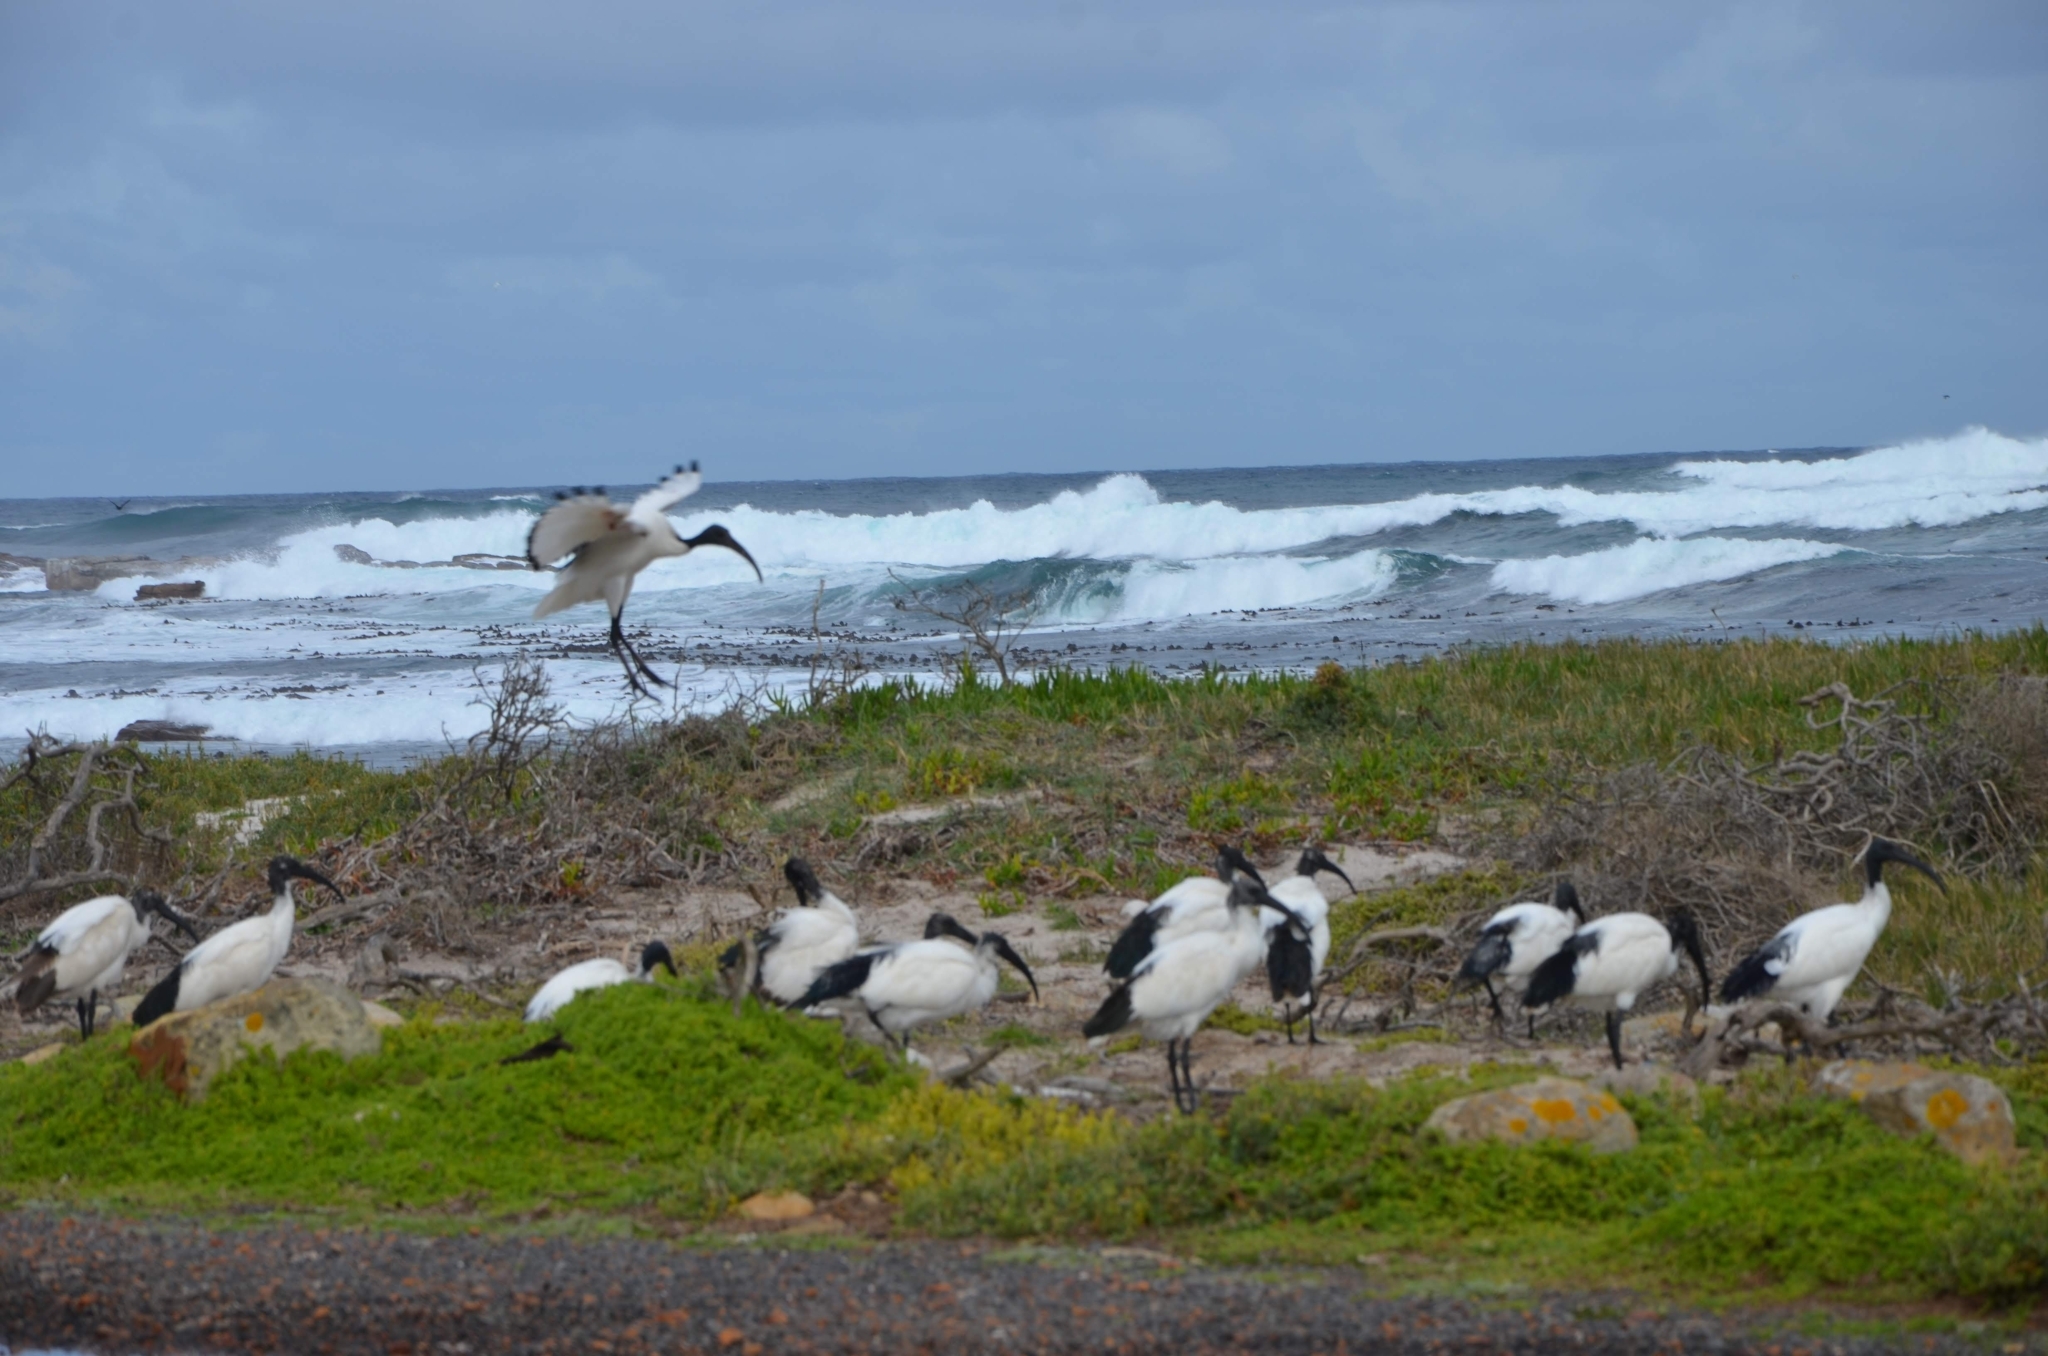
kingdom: Animalia
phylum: Chordata
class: Aves
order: Pelecaniformes
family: Threskiornithidae
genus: Threskiornis
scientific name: Threskiornis aethiopicus
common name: Sacred ibis
